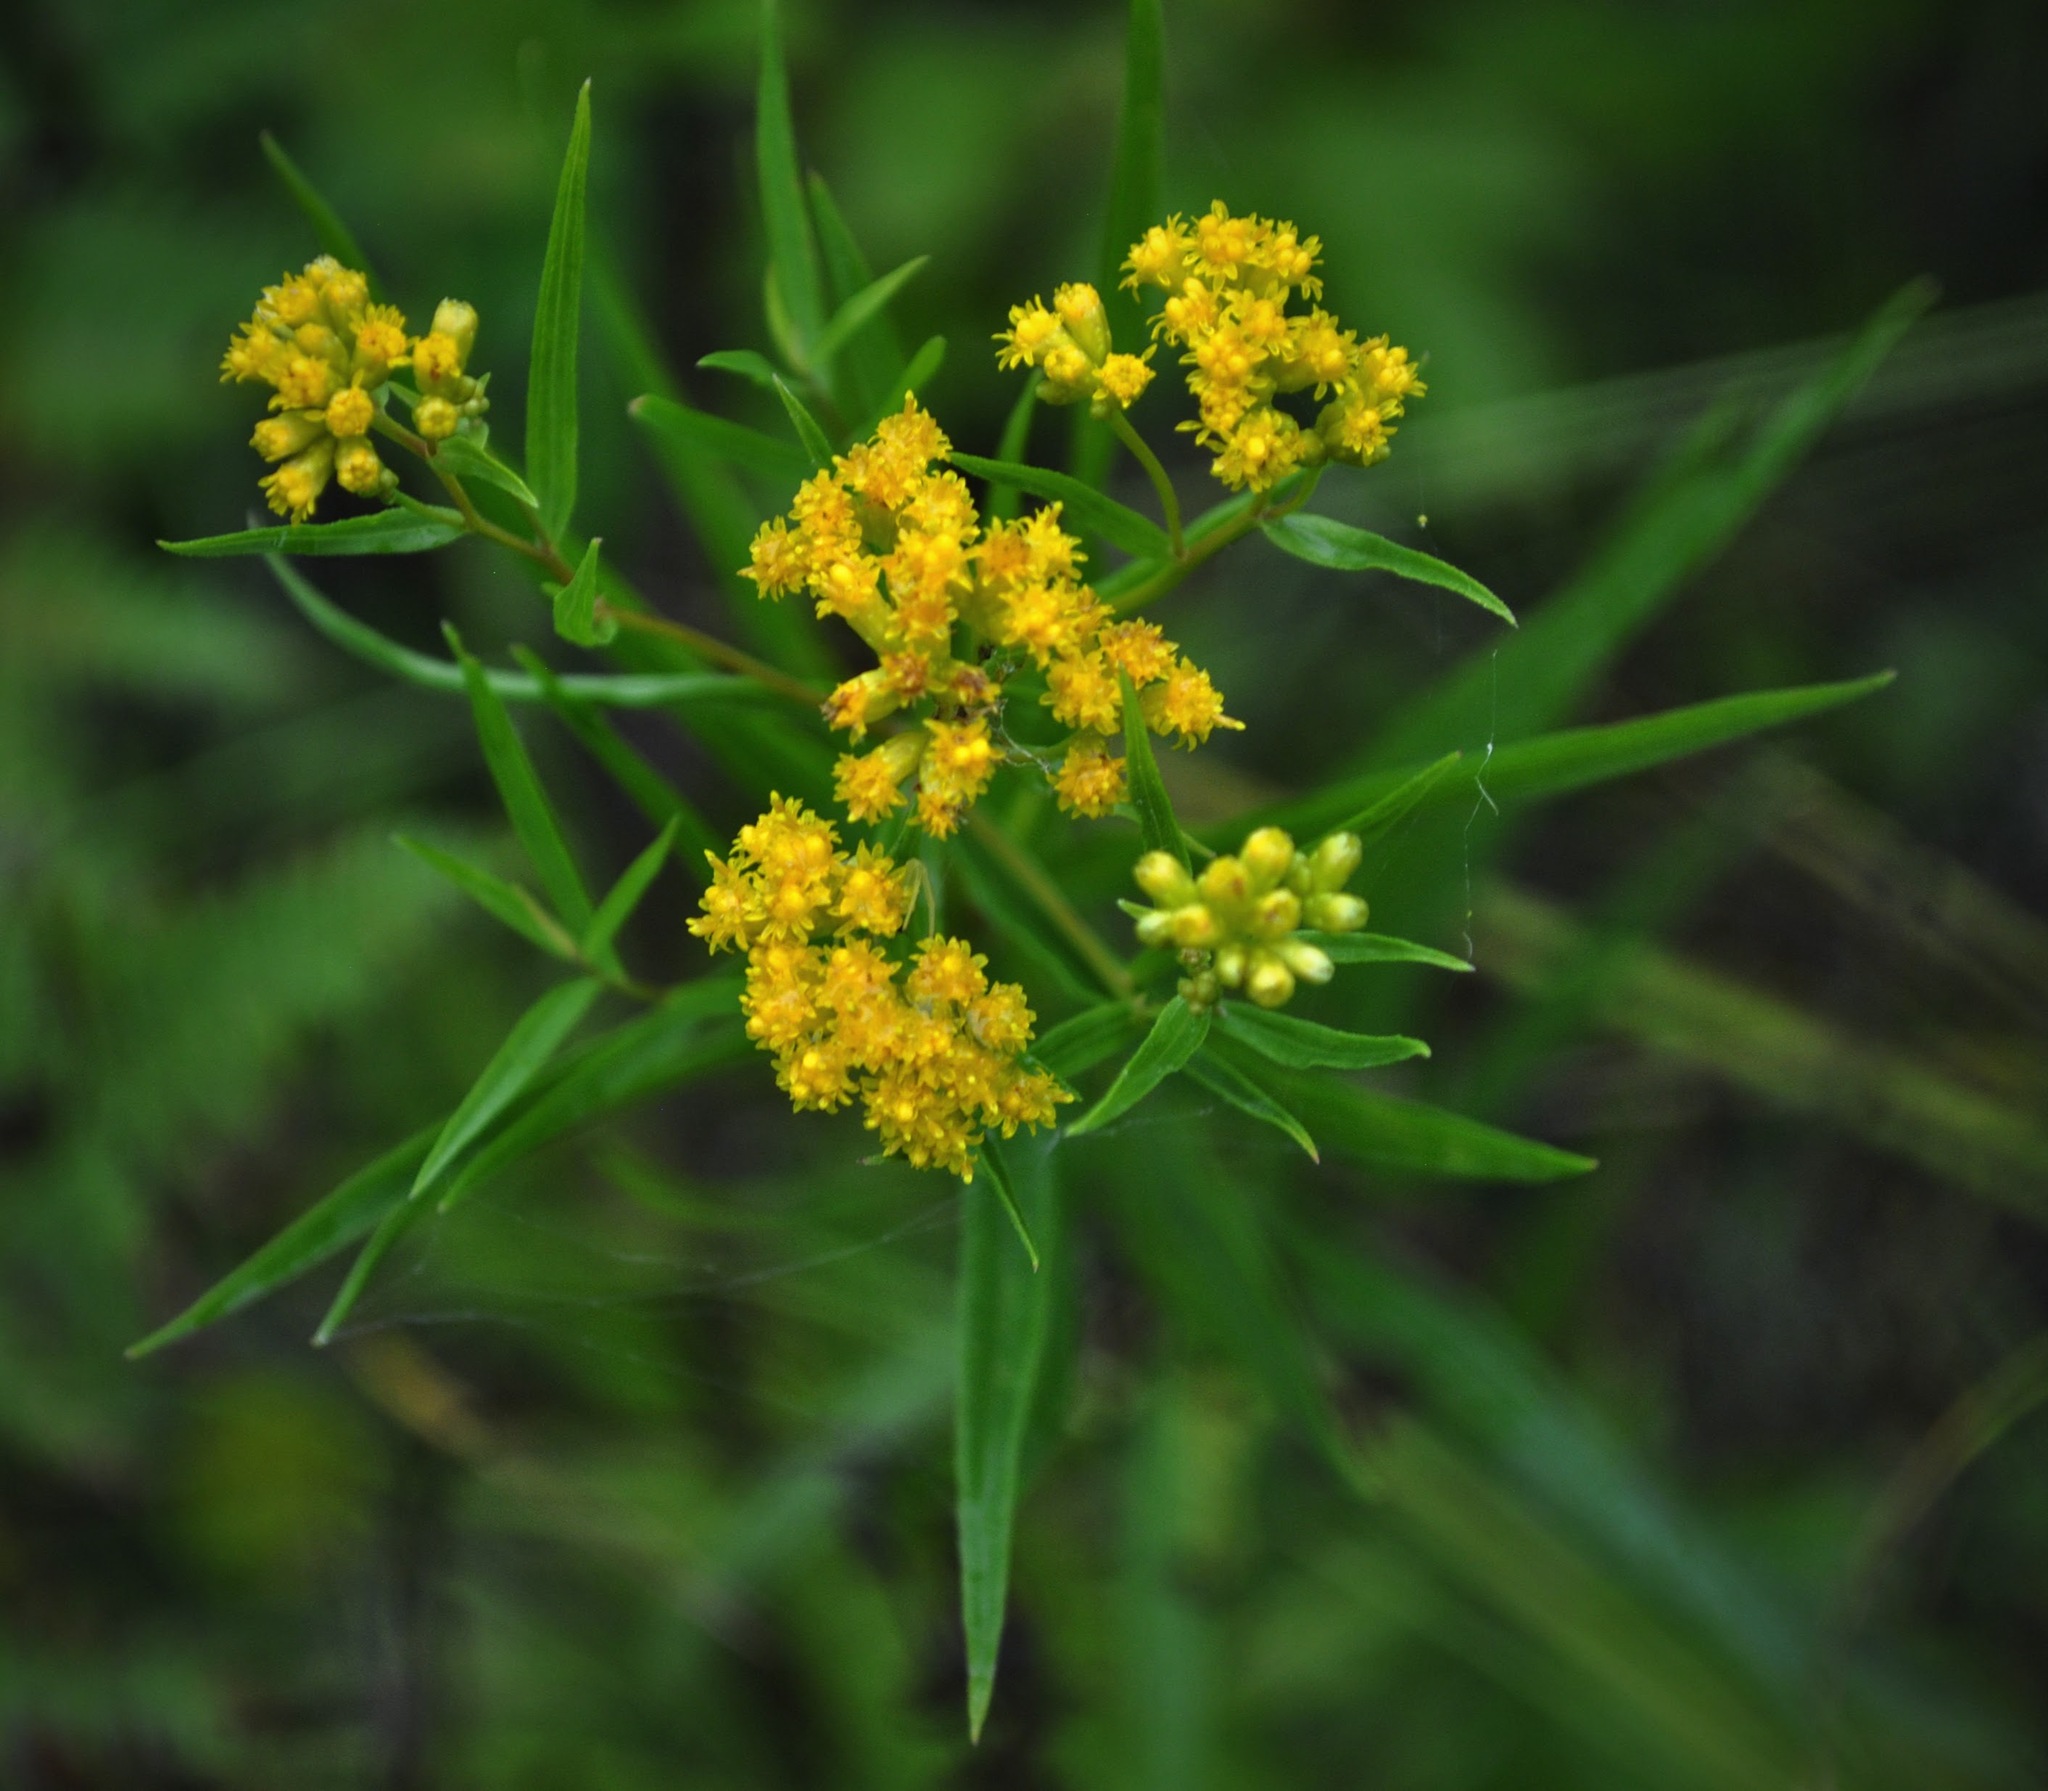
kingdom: Plantae
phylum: Tracheophyta
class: Magnoliopsida
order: Asterales
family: Asteraceae
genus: Euthamia
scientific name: Euthamia graminifolia
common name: Common goldentop
